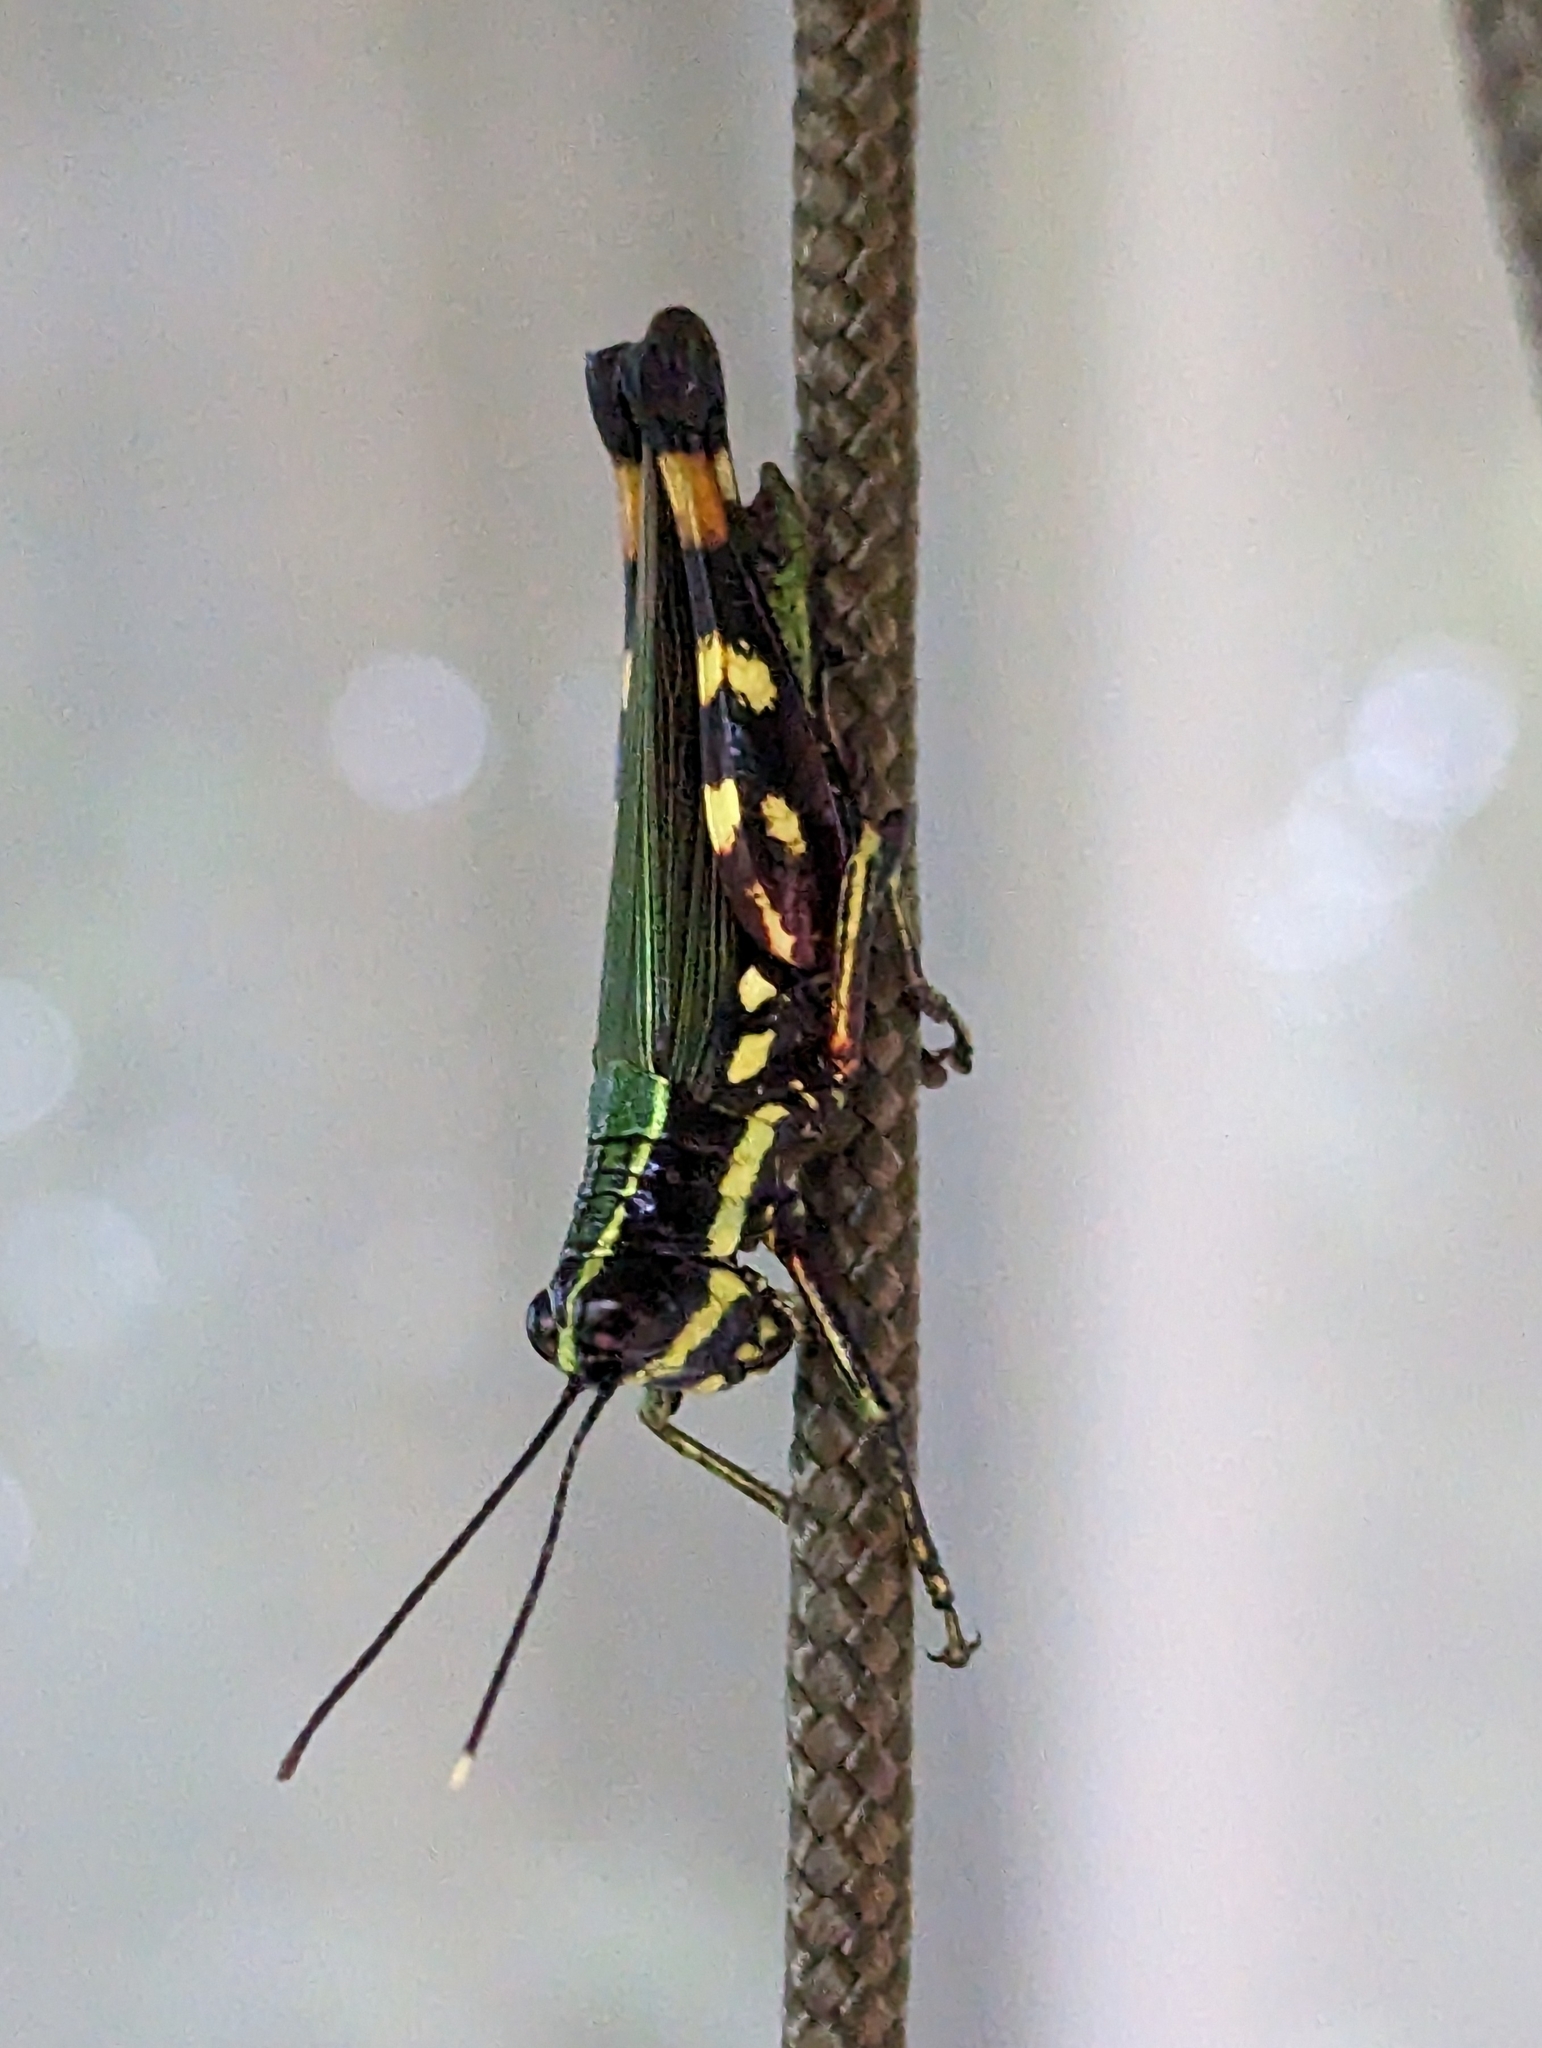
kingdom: Animalia
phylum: Arthropoda
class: Insecta
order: Orthoptera
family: Acrididae
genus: Tetrataenia
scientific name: Tetrataenia surinama
